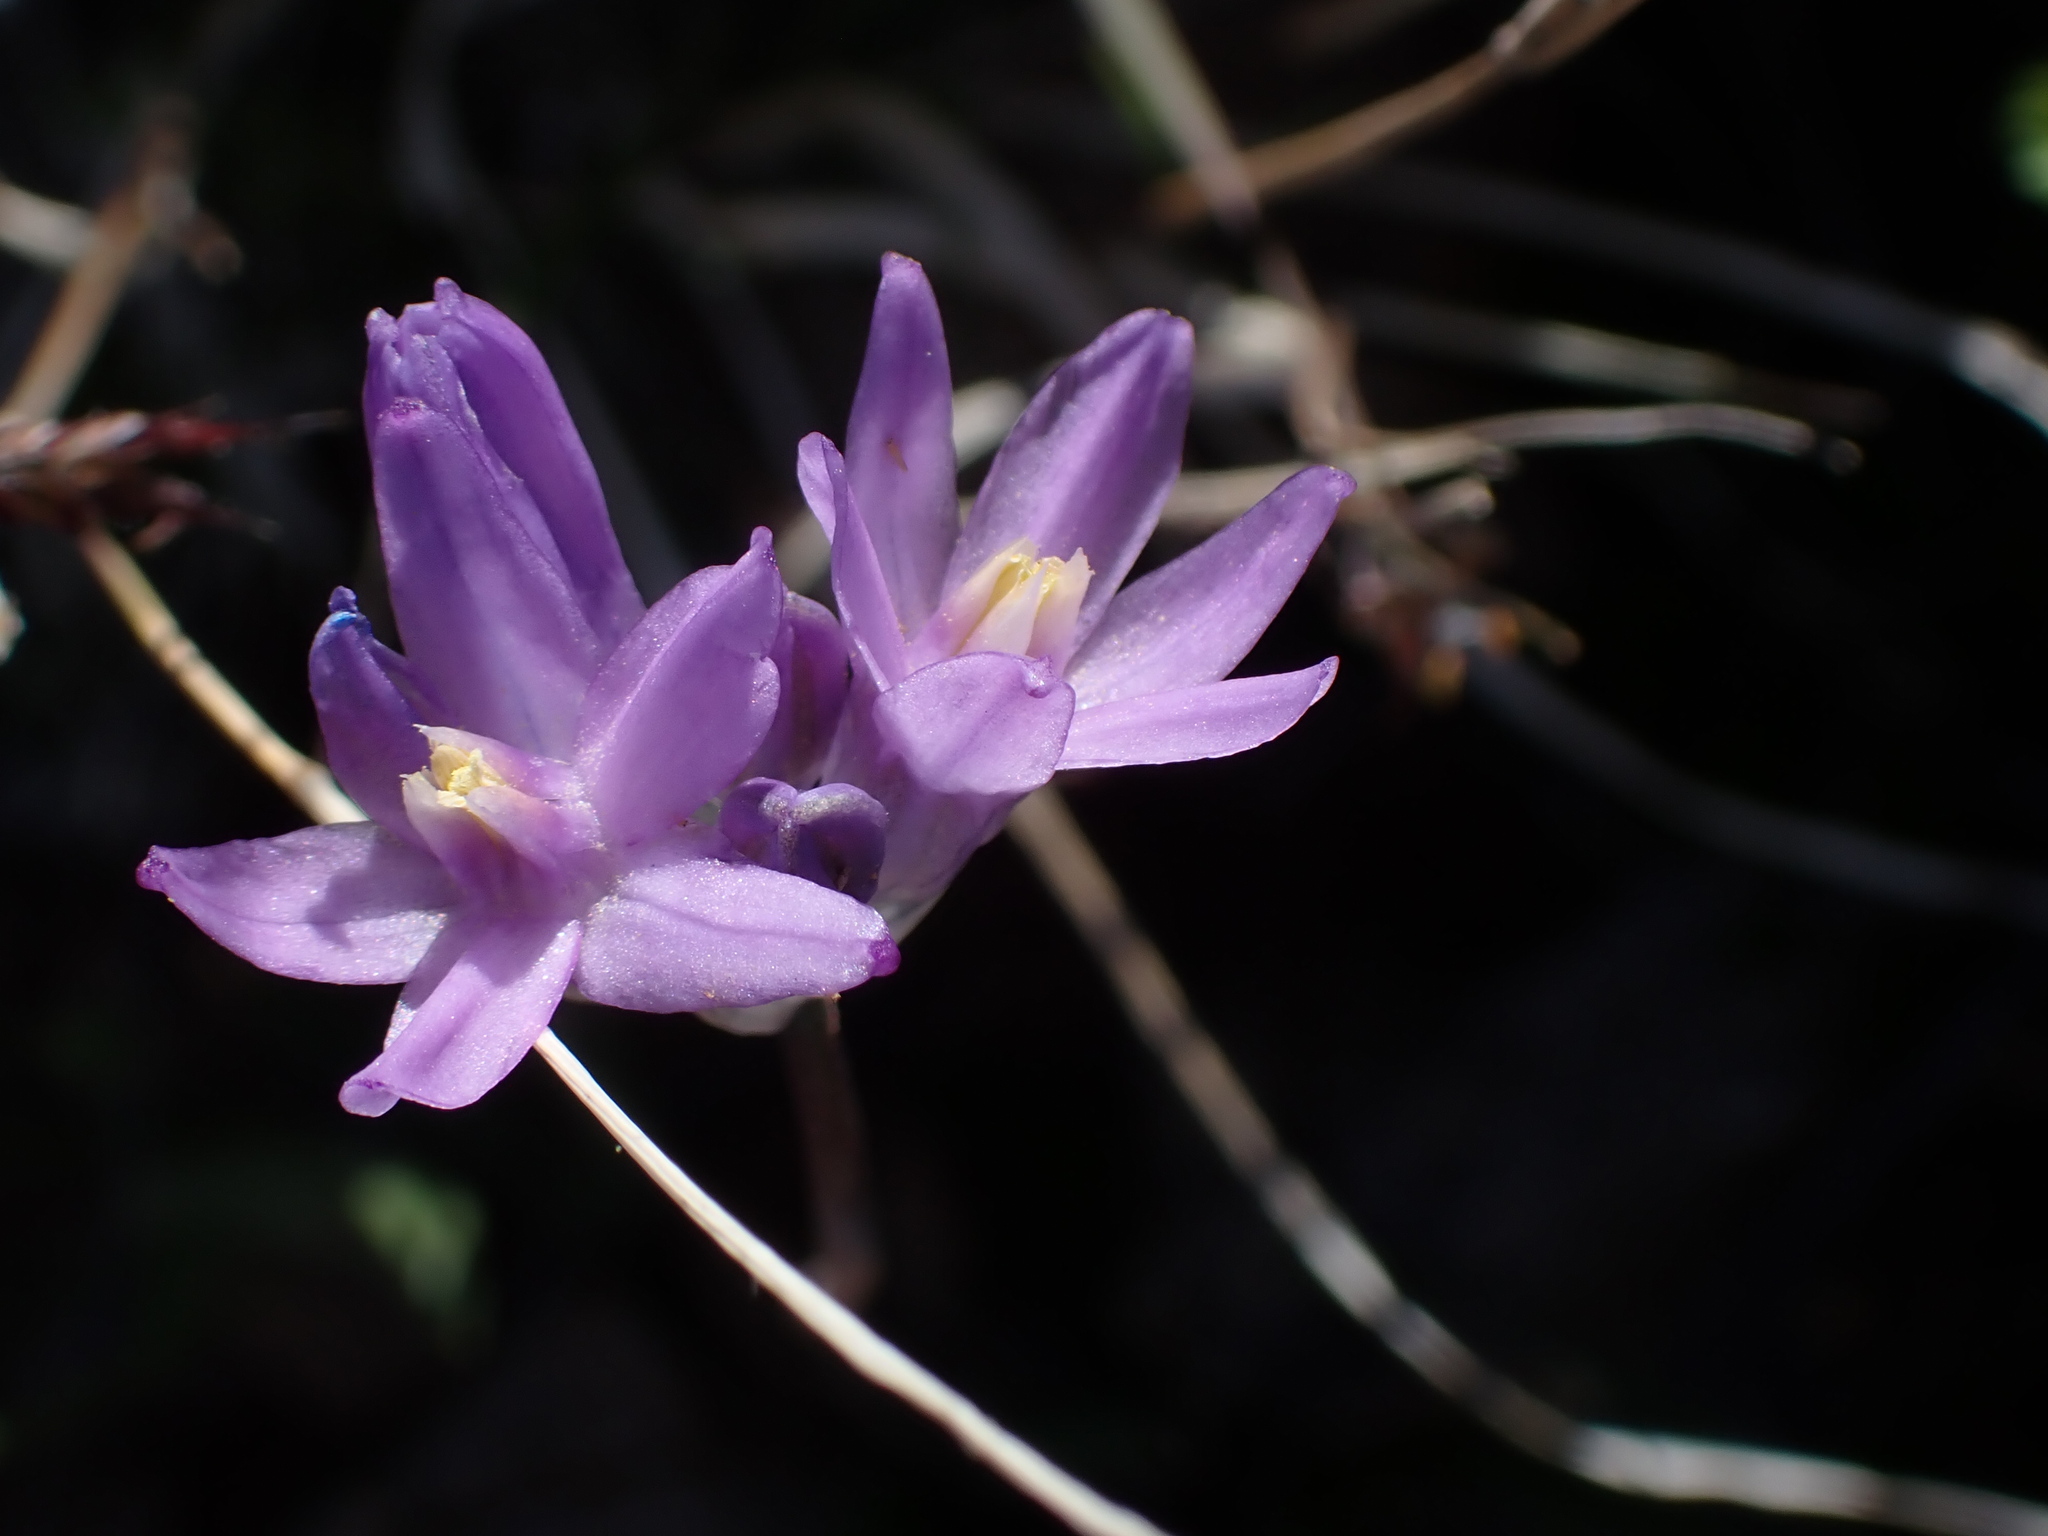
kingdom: Plantae
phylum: Tracheophyta
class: Liliopsida
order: Asparagales
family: Asparagaceae
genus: Dipterostemon
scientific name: Dipterostemon capitatus
